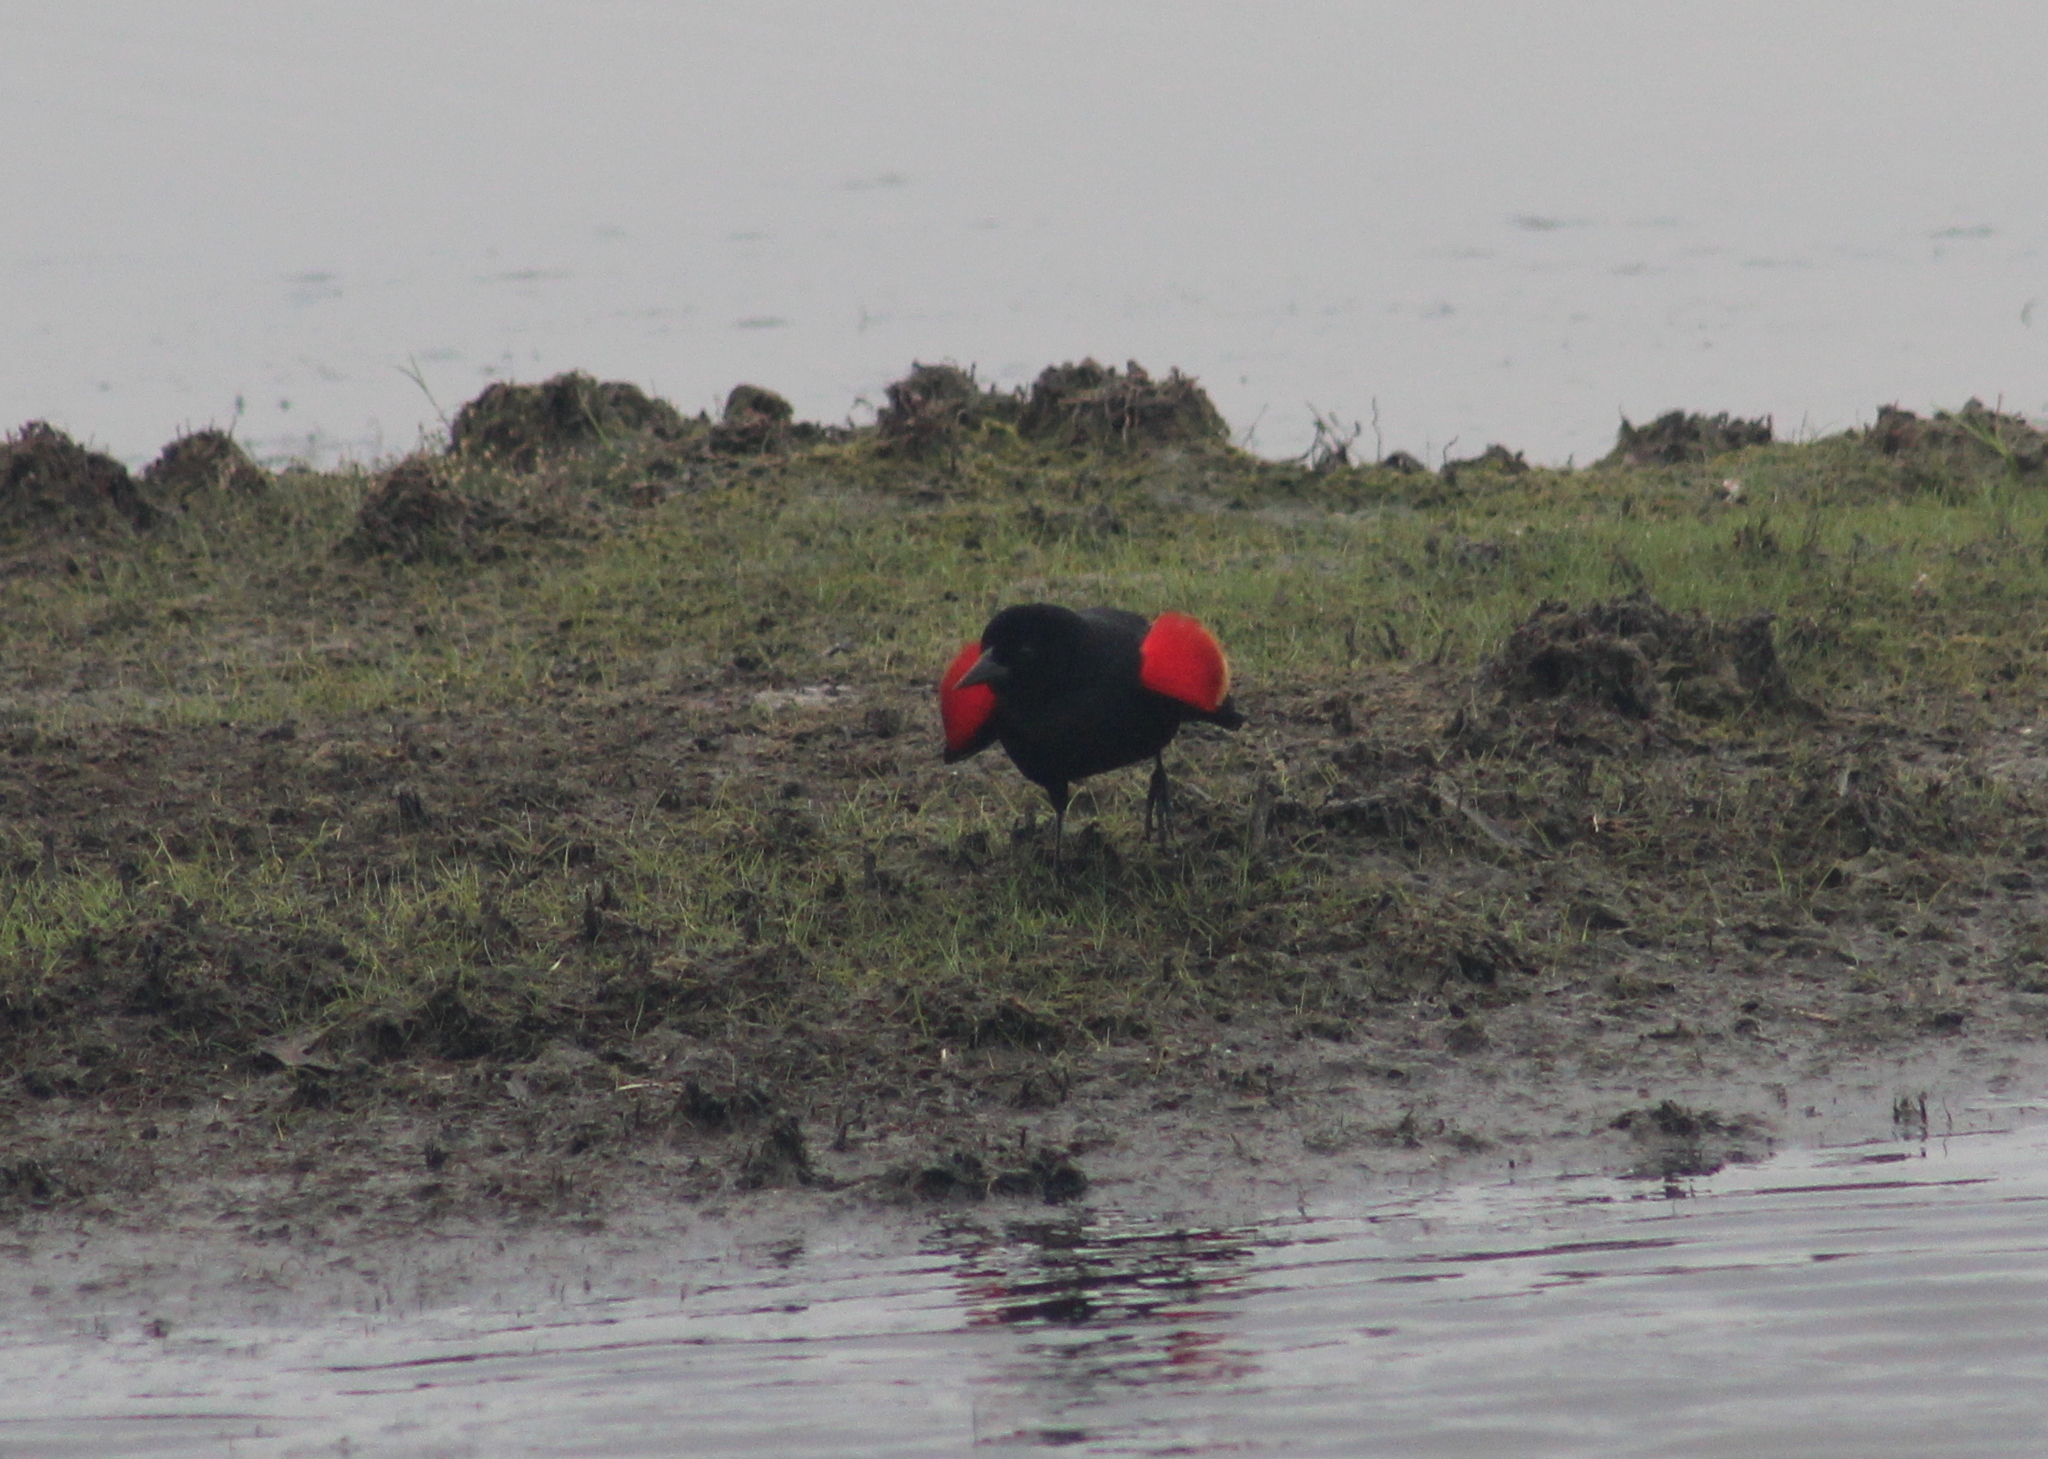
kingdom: Animalia
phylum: Chordata
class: Aves
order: Passeriformes
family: Icteridae
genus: Agelaius
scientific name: Agelaius phoeniceus
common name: Red-winged blackbird
